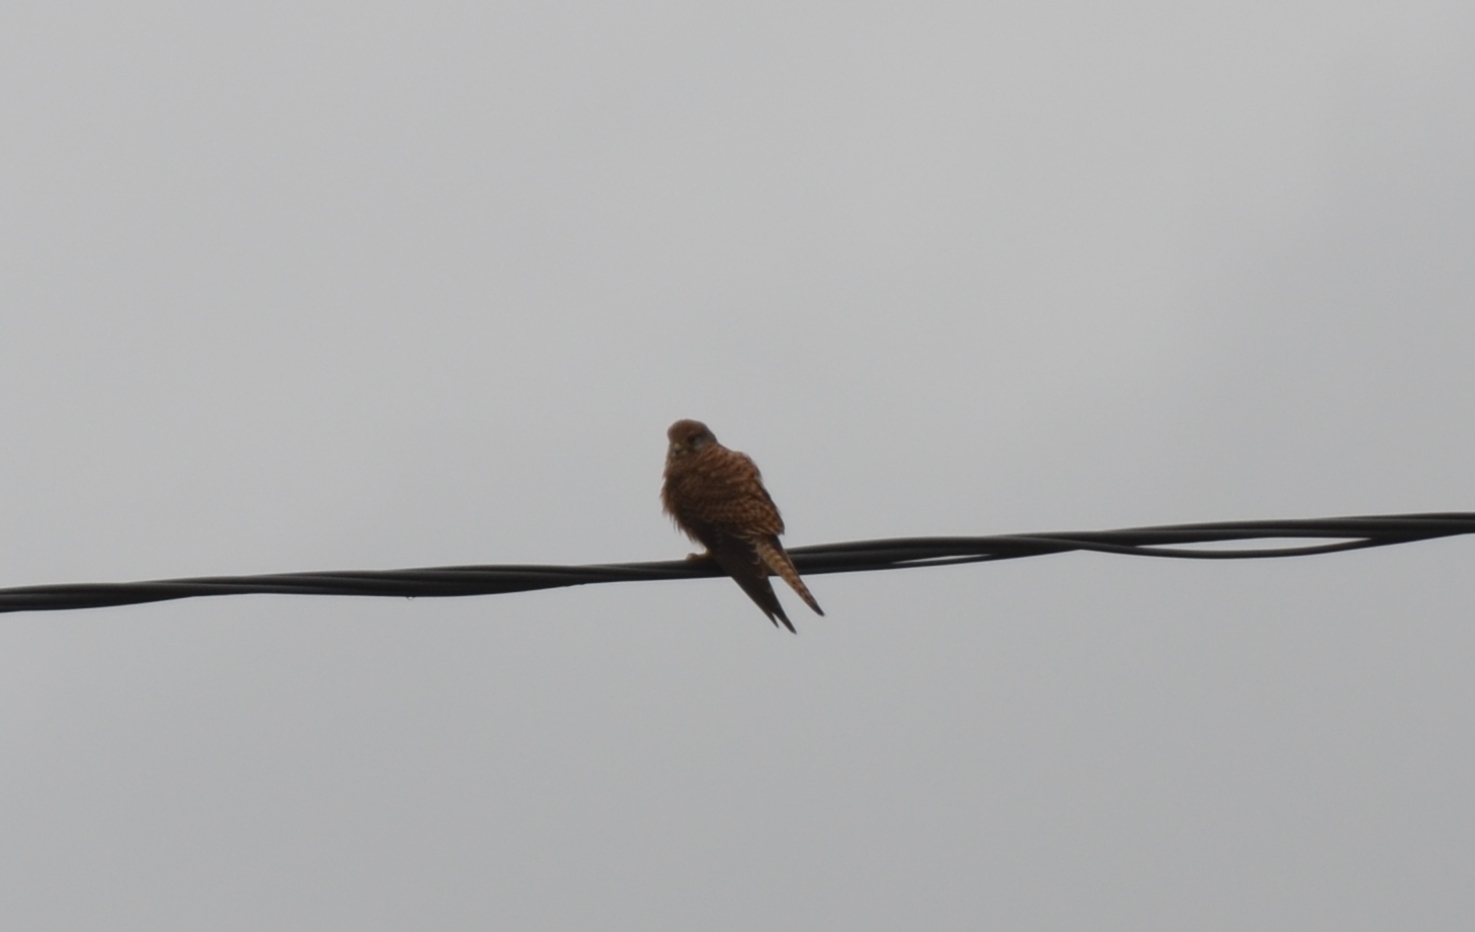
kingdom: Animalia
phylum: Chordata
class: Aves
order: Falconiformes
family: Falconidae
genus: Falco
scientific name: Falco tinnunculus
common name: Common kestrel
